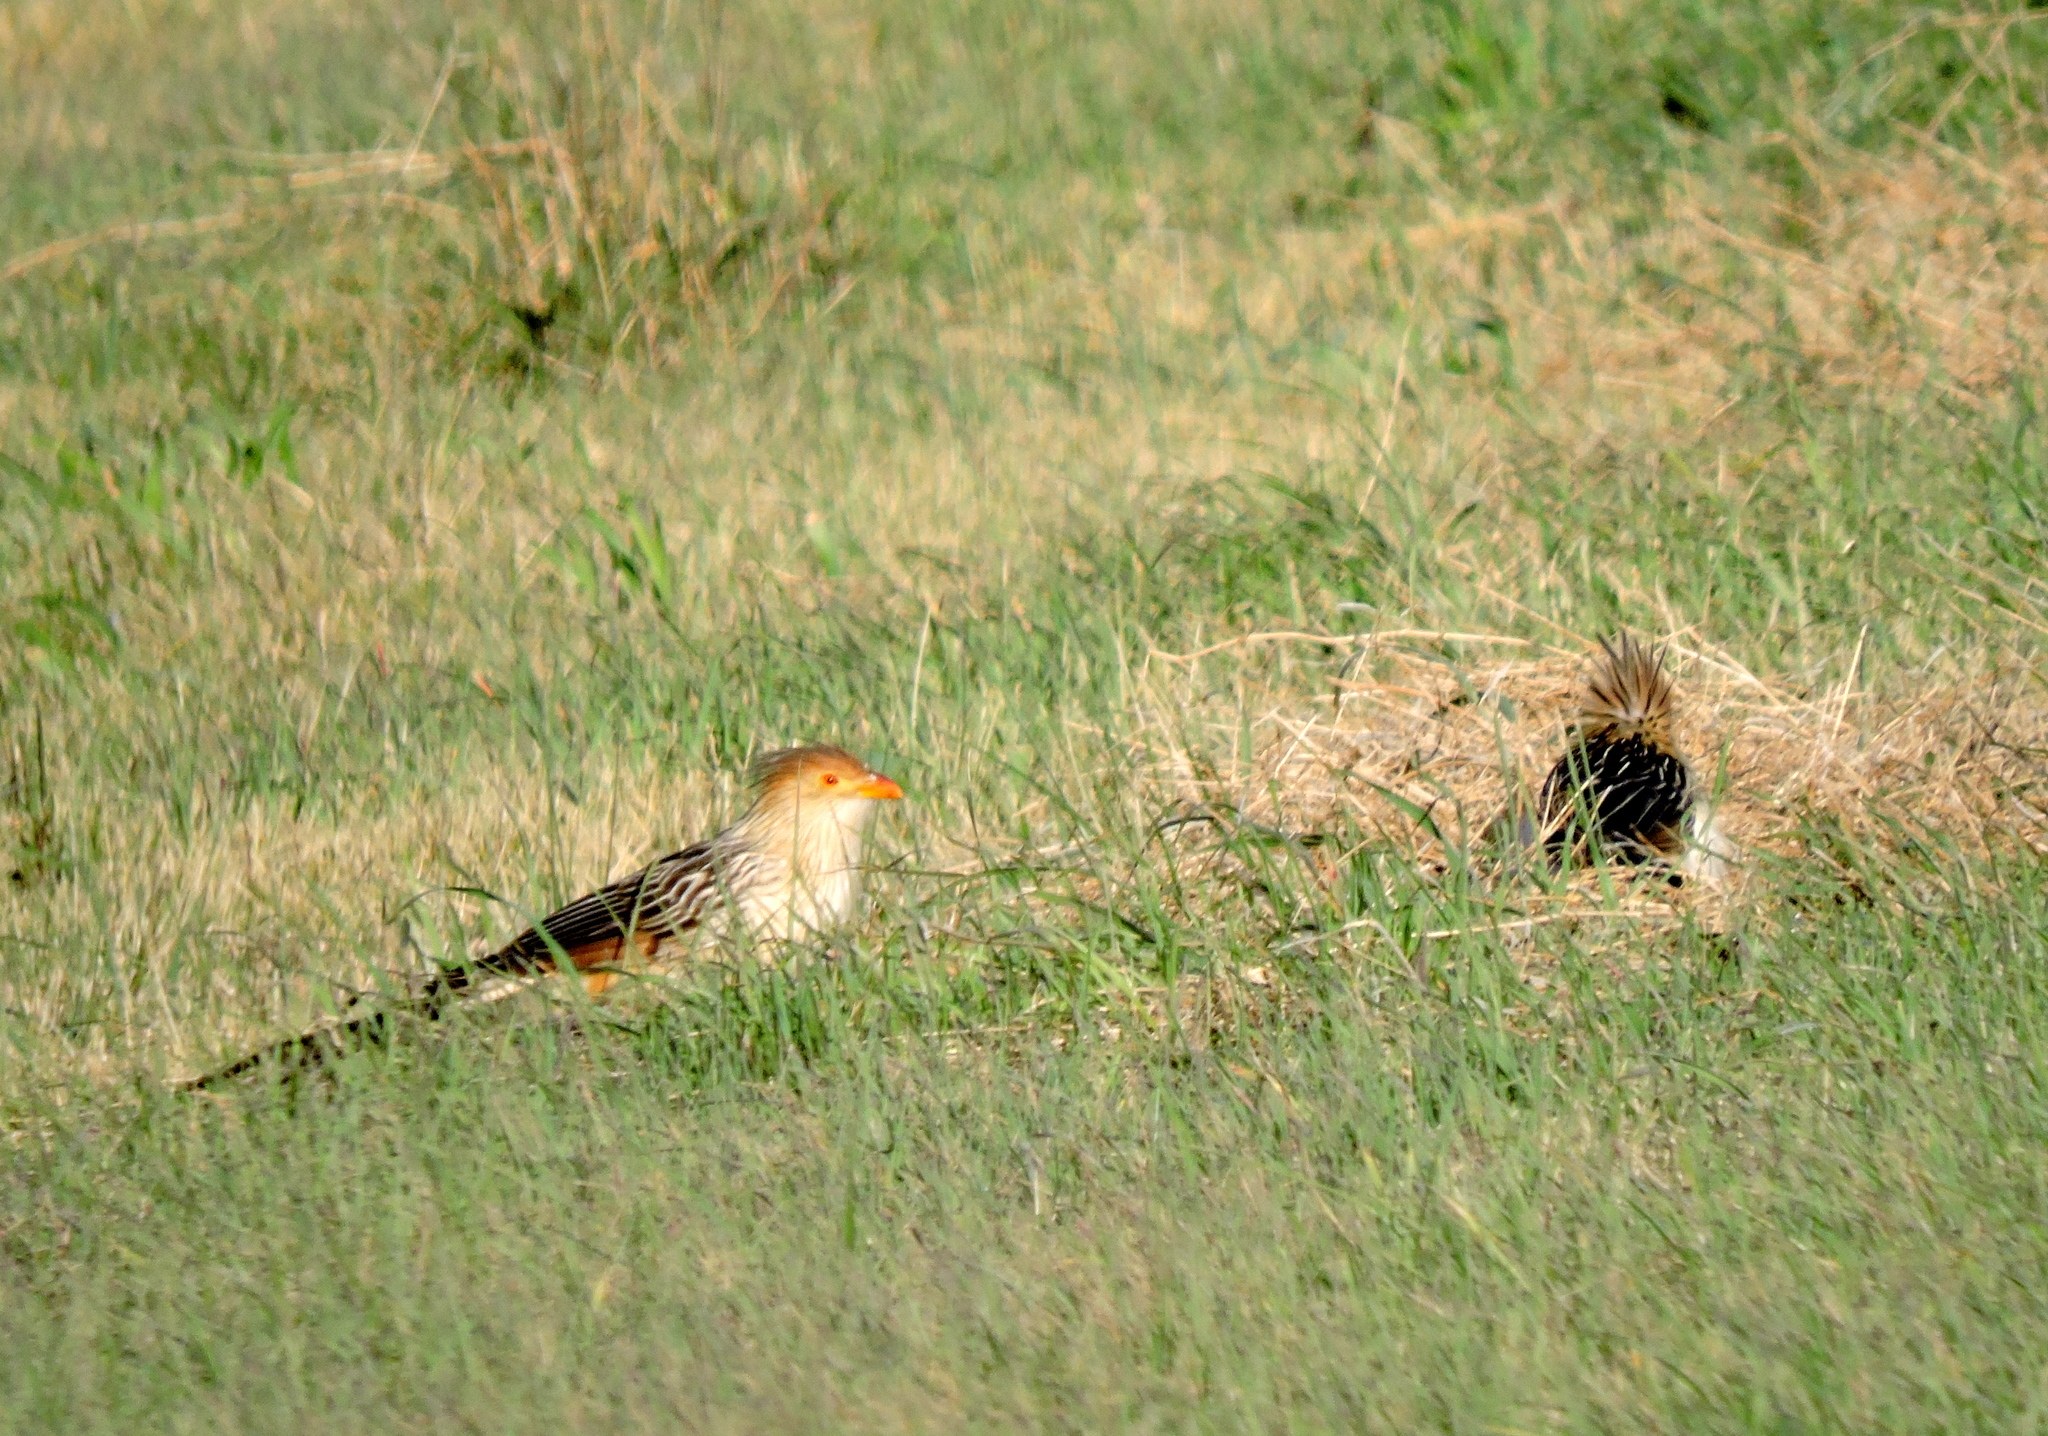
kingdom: Animalia
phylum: Chordata
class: Aves
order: Cuculiformes
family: Cuculidae
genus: Guira
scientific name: Guira guira
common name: Guira cuckoo
